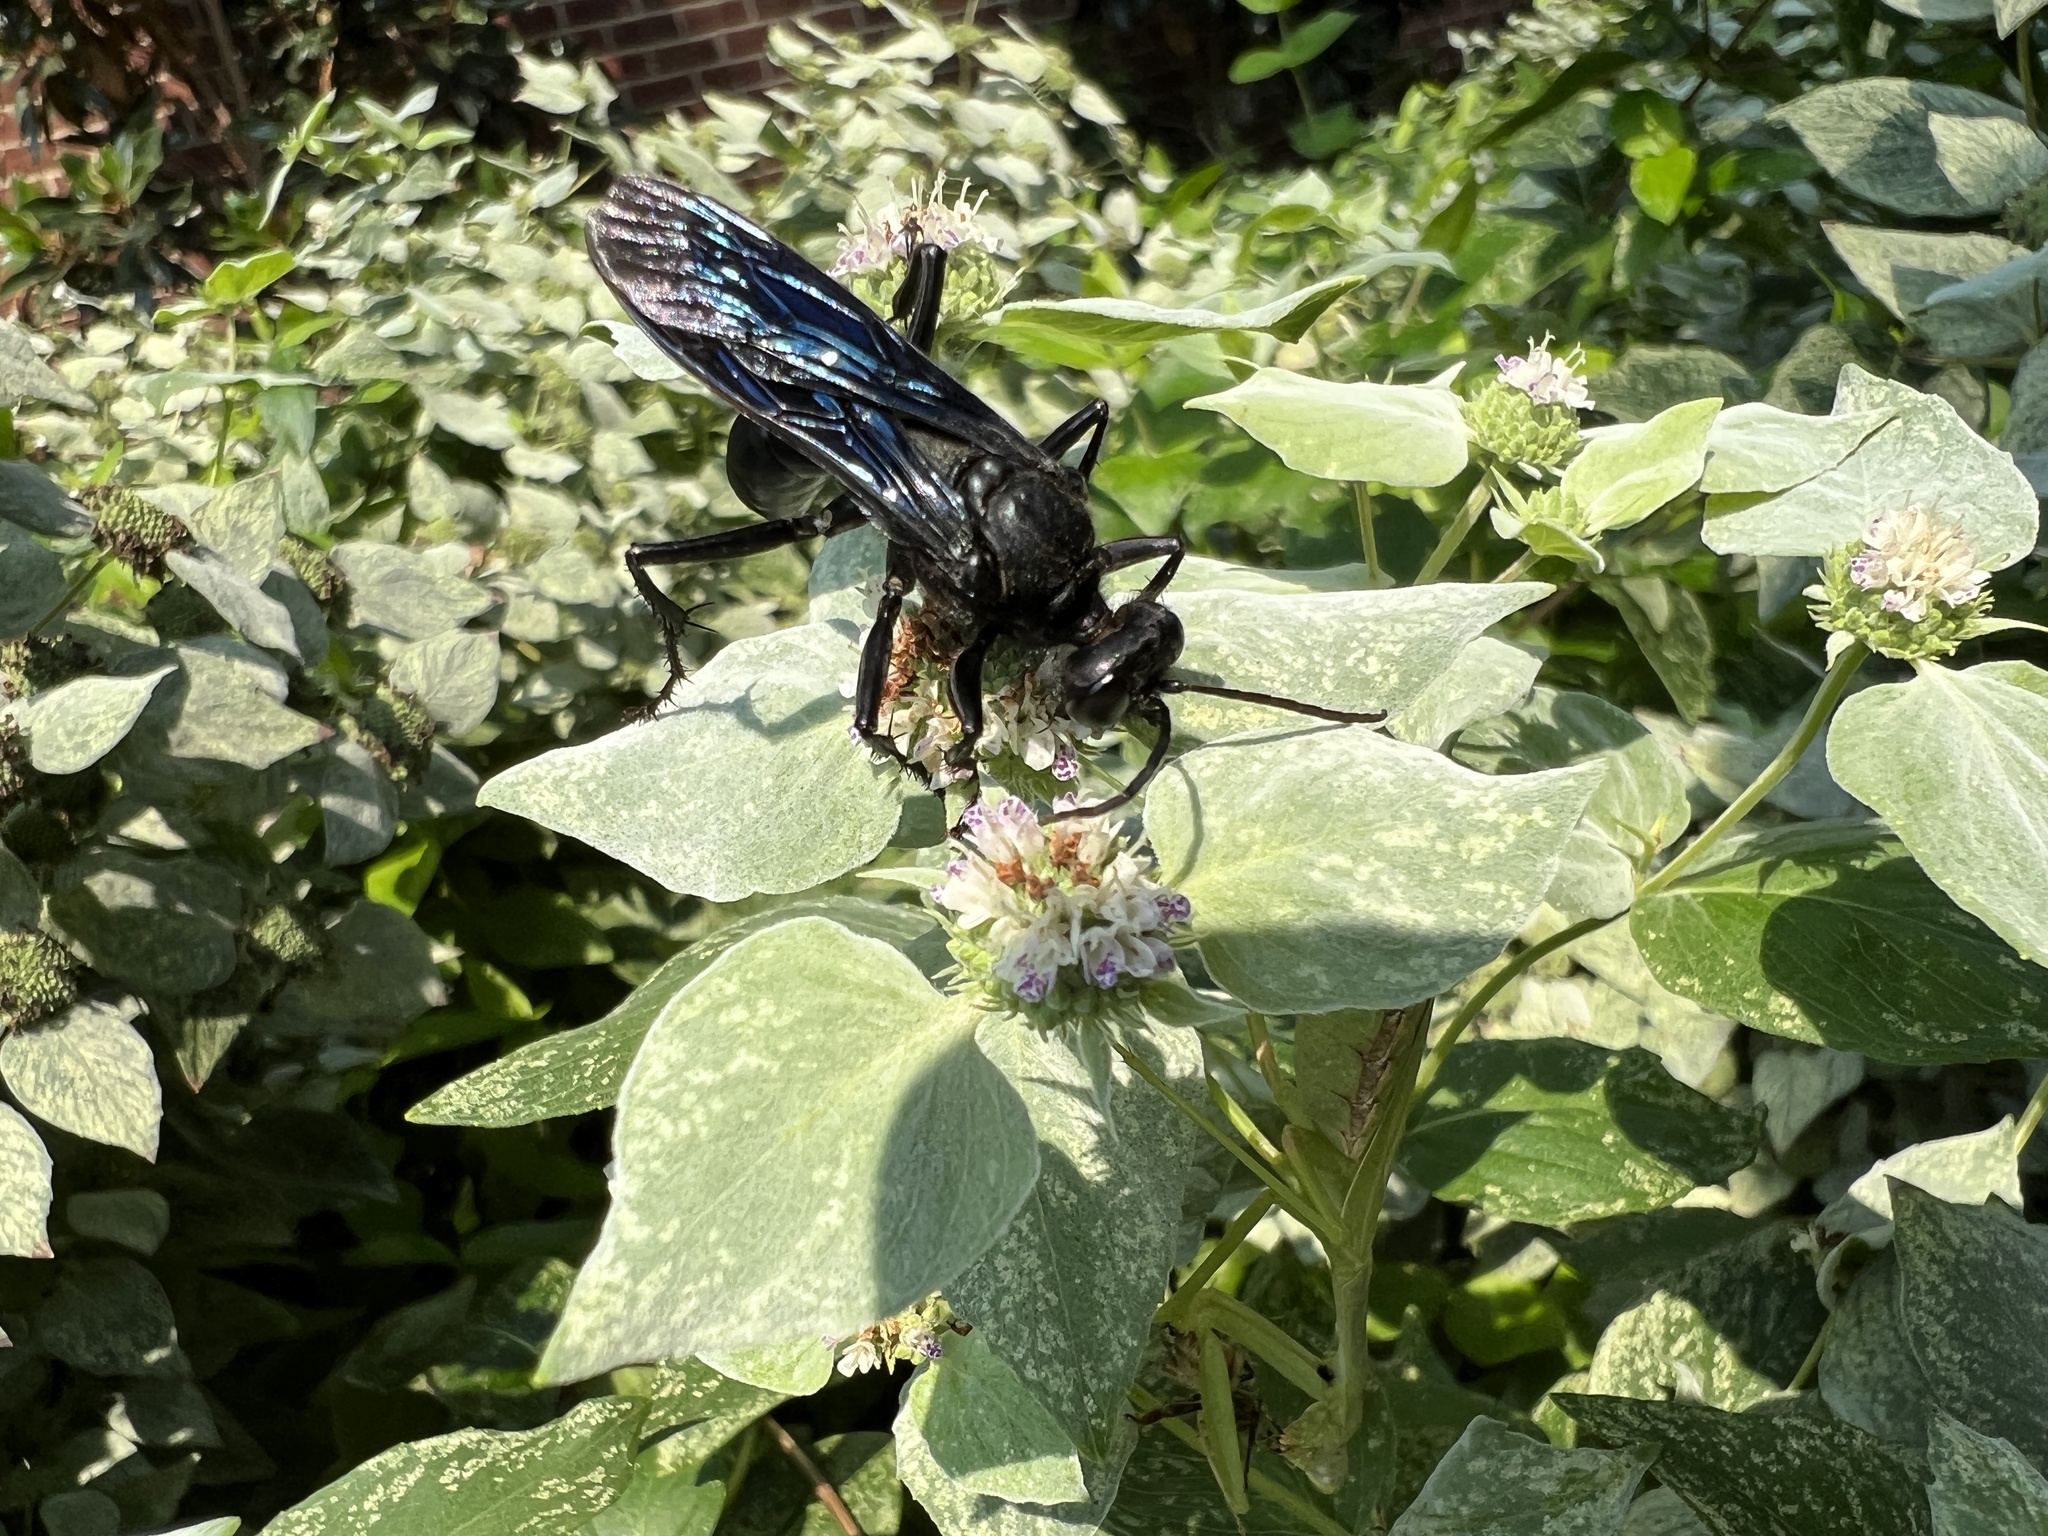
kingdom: Animalia
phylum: Arthropoda
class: Insecta
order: Hymenoptera
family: Sphecidae
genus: Sphex
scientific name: Sphex pensylvanicus
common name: Great black digger wasp
